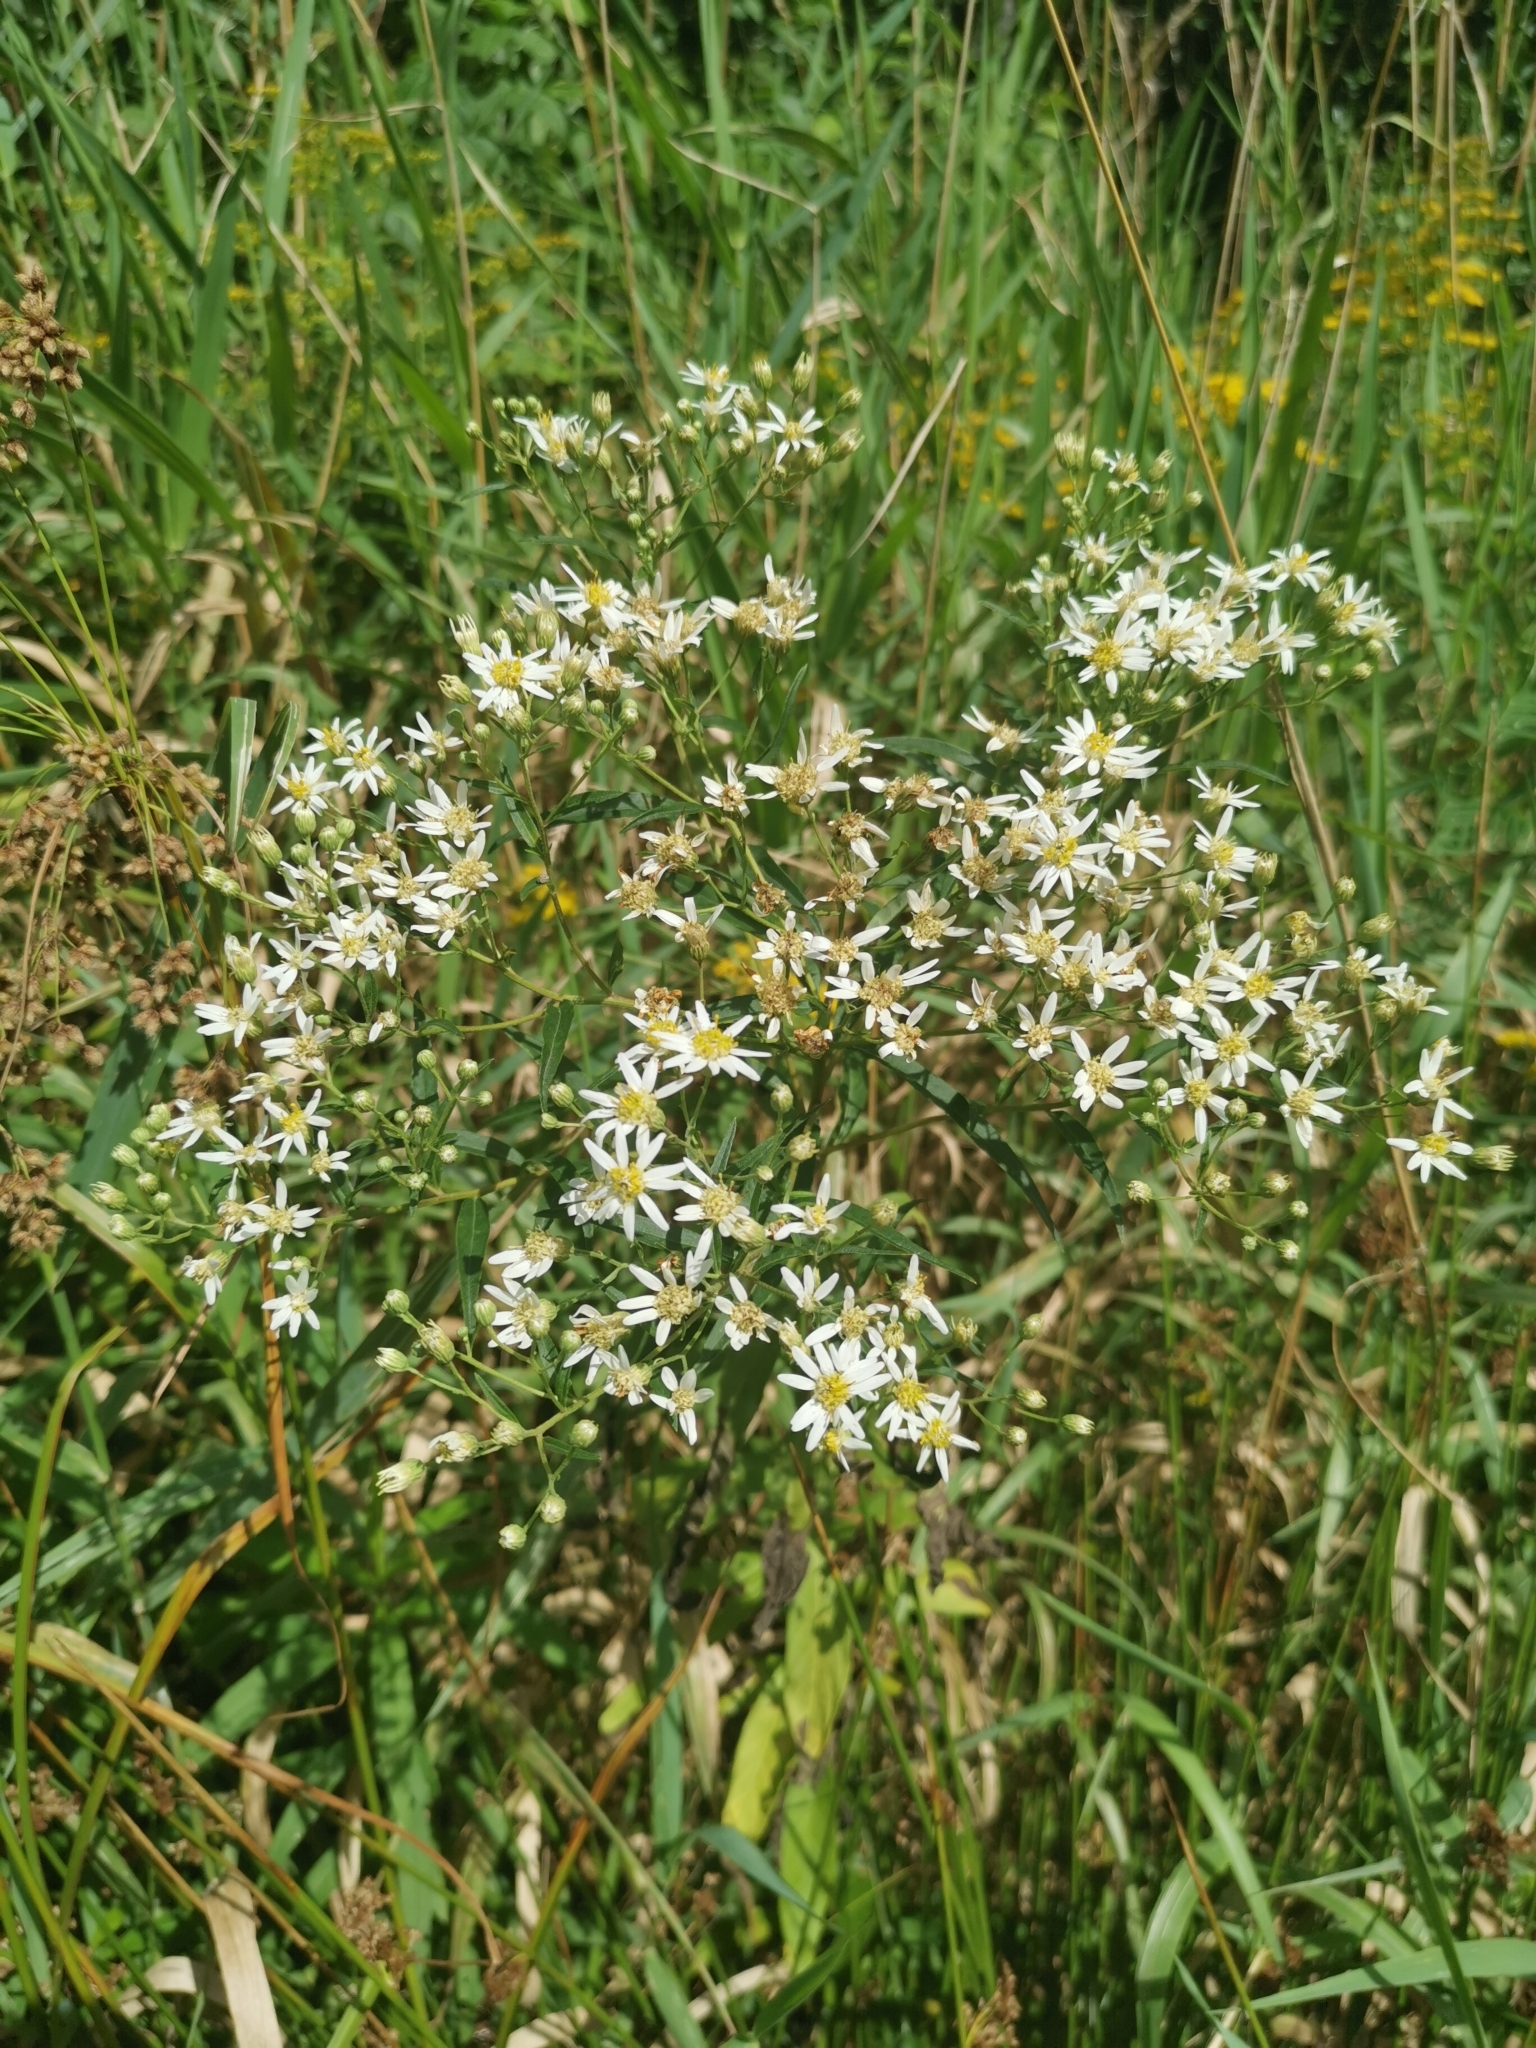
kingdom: Plantae
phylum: Tracheophyta
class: Magnoliopsida
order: Asterales
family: Asteraceae
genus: Doellingeria
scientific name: Doellingeria umbellata
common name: Flat-top white aster
